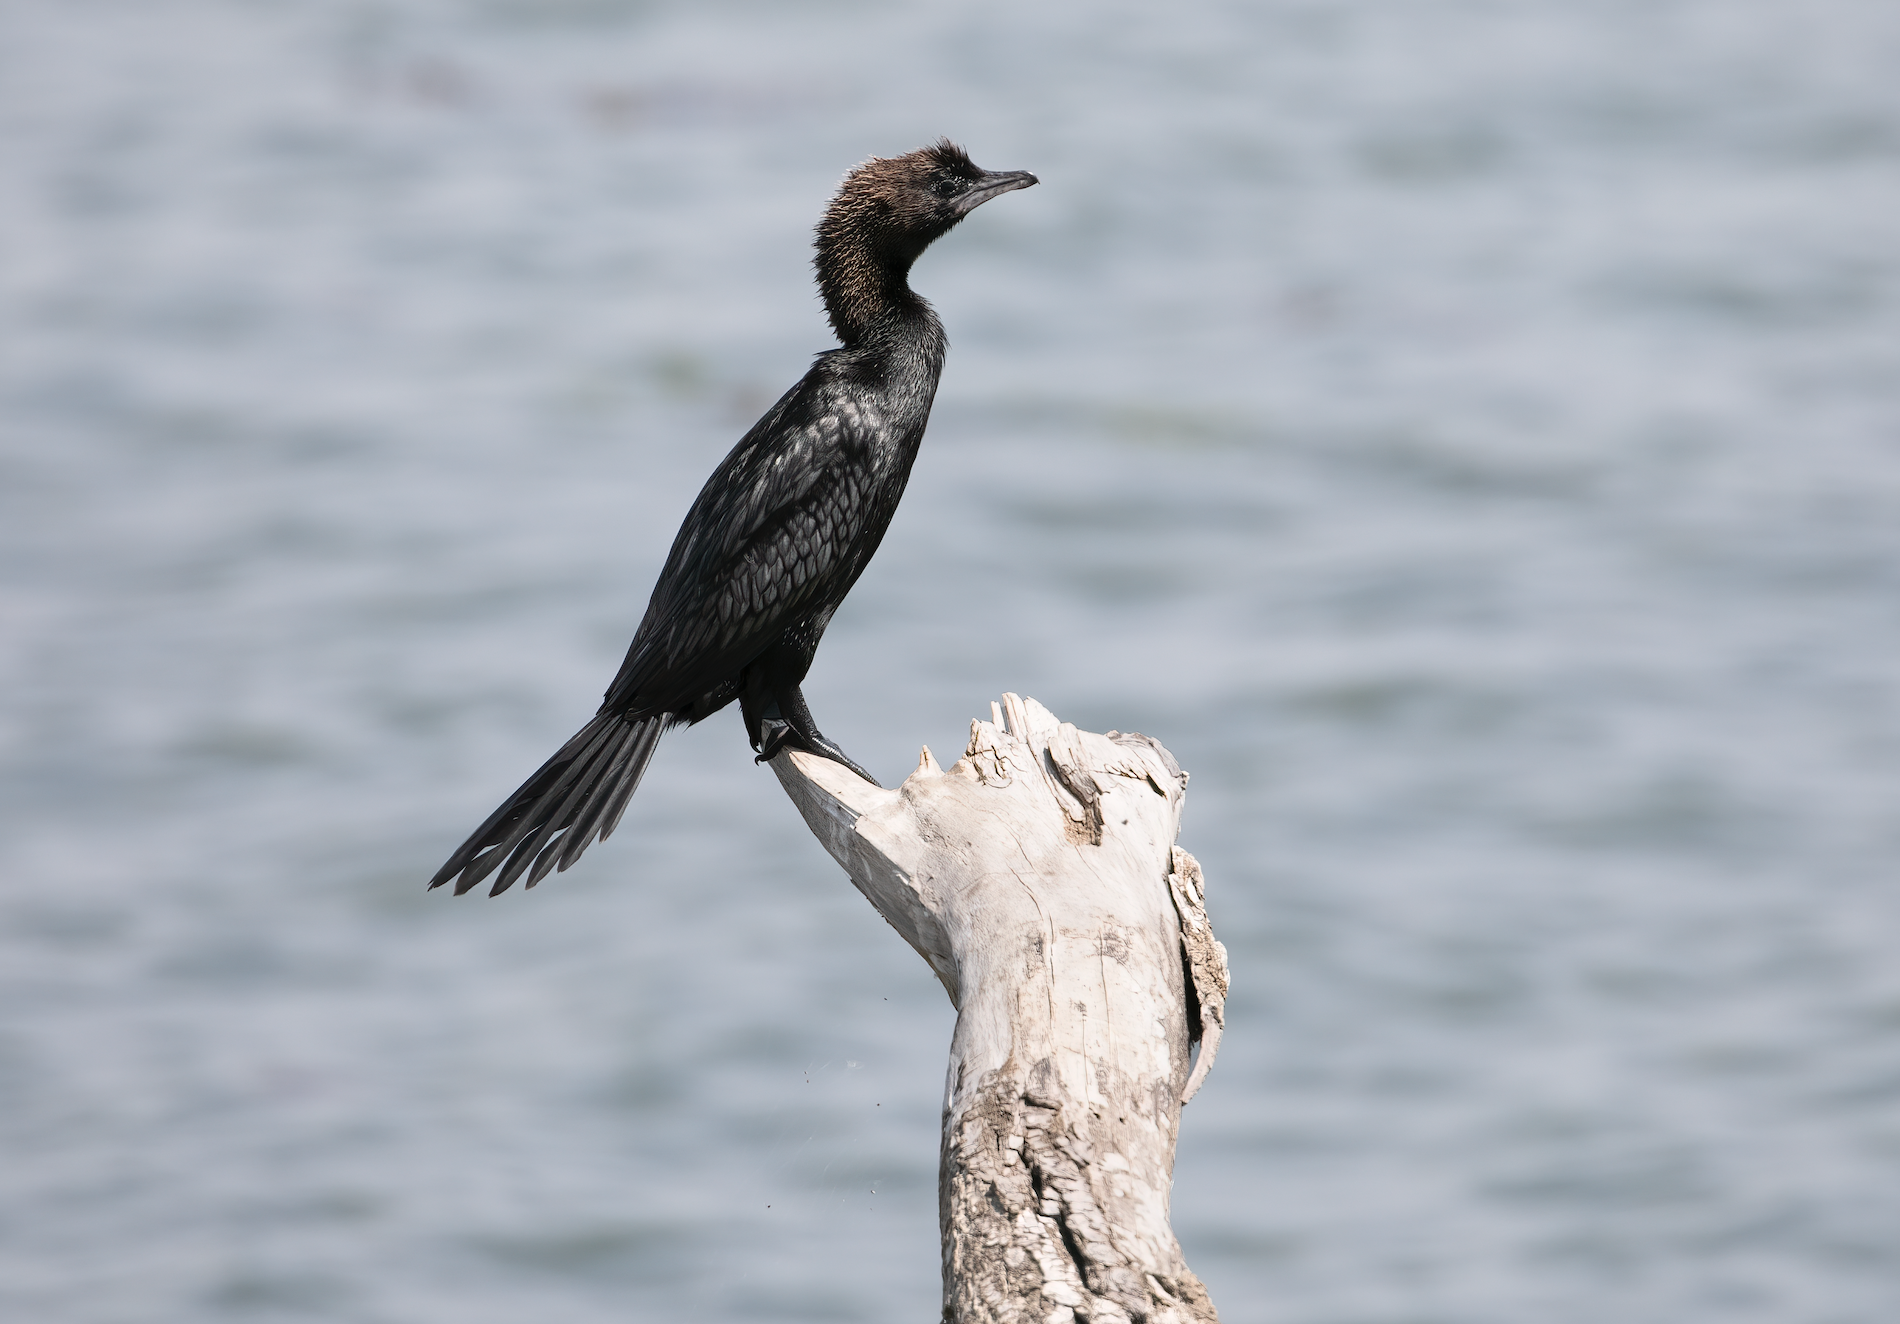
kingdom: Animalia
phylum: Chordata
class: Aves
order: Suliformes
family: Phalacrocoracidae
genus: Microcarbo
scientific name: Microcarbo pygmaeus
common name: Pygmy cormorant
